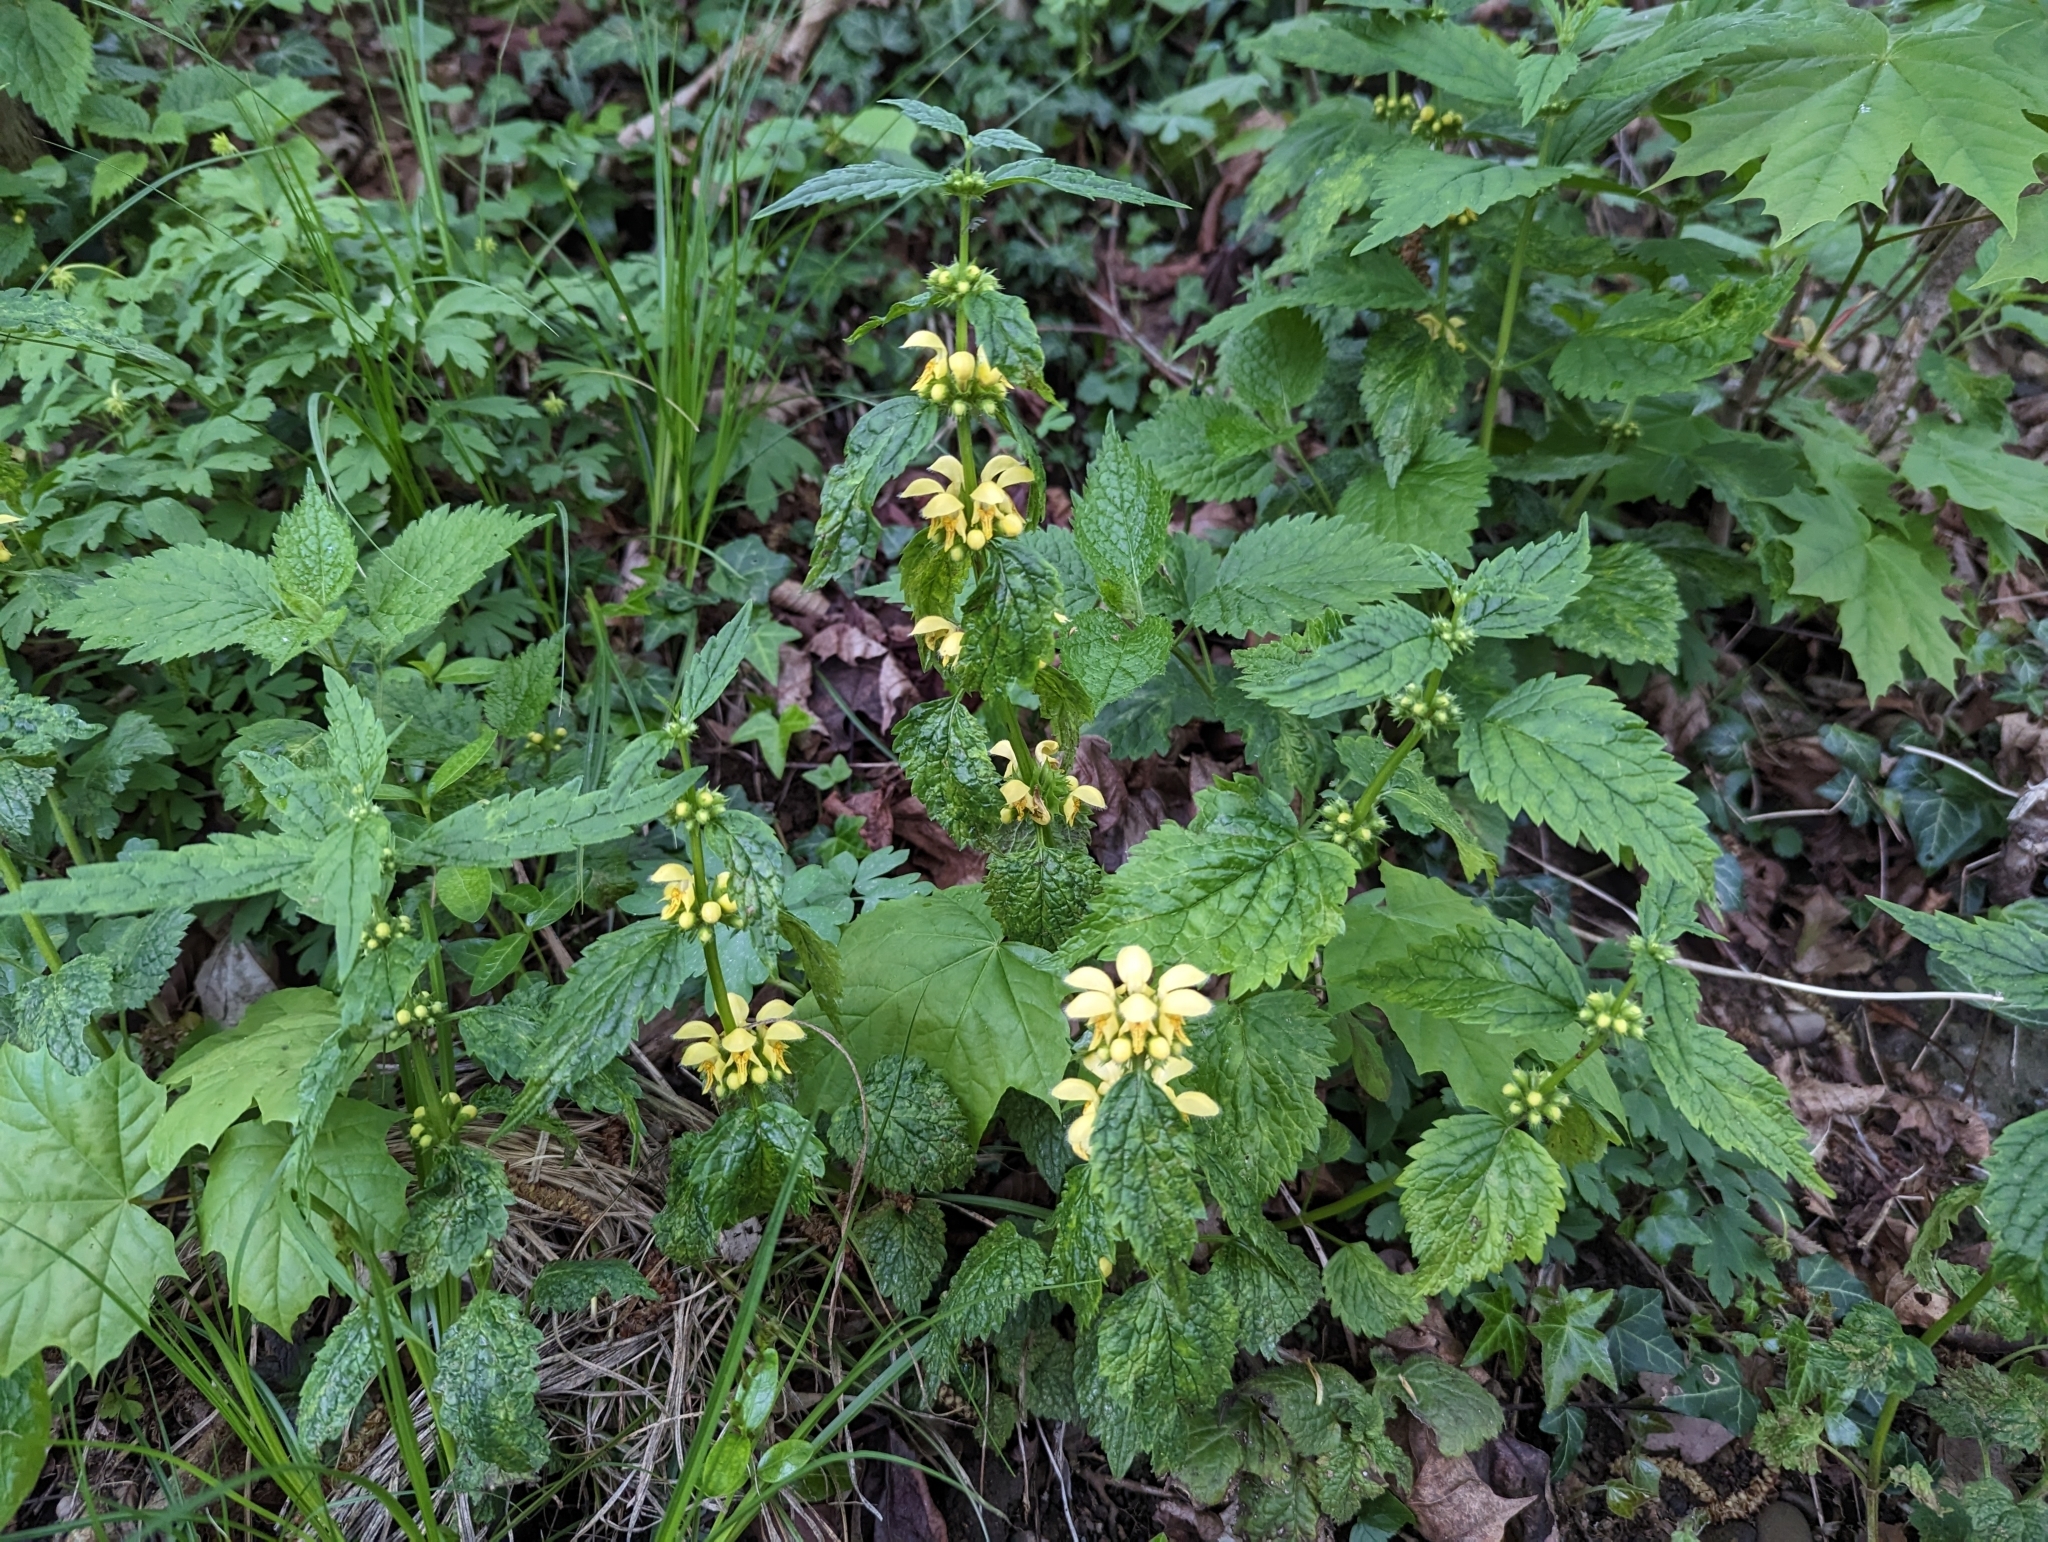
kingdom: Plantae
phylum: Tracheophyta
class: Magnoliopsida
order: Lamiales
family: Lamiaceae
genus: Lamium
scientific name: Lamium galeobdolon
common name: Yellow archangel
